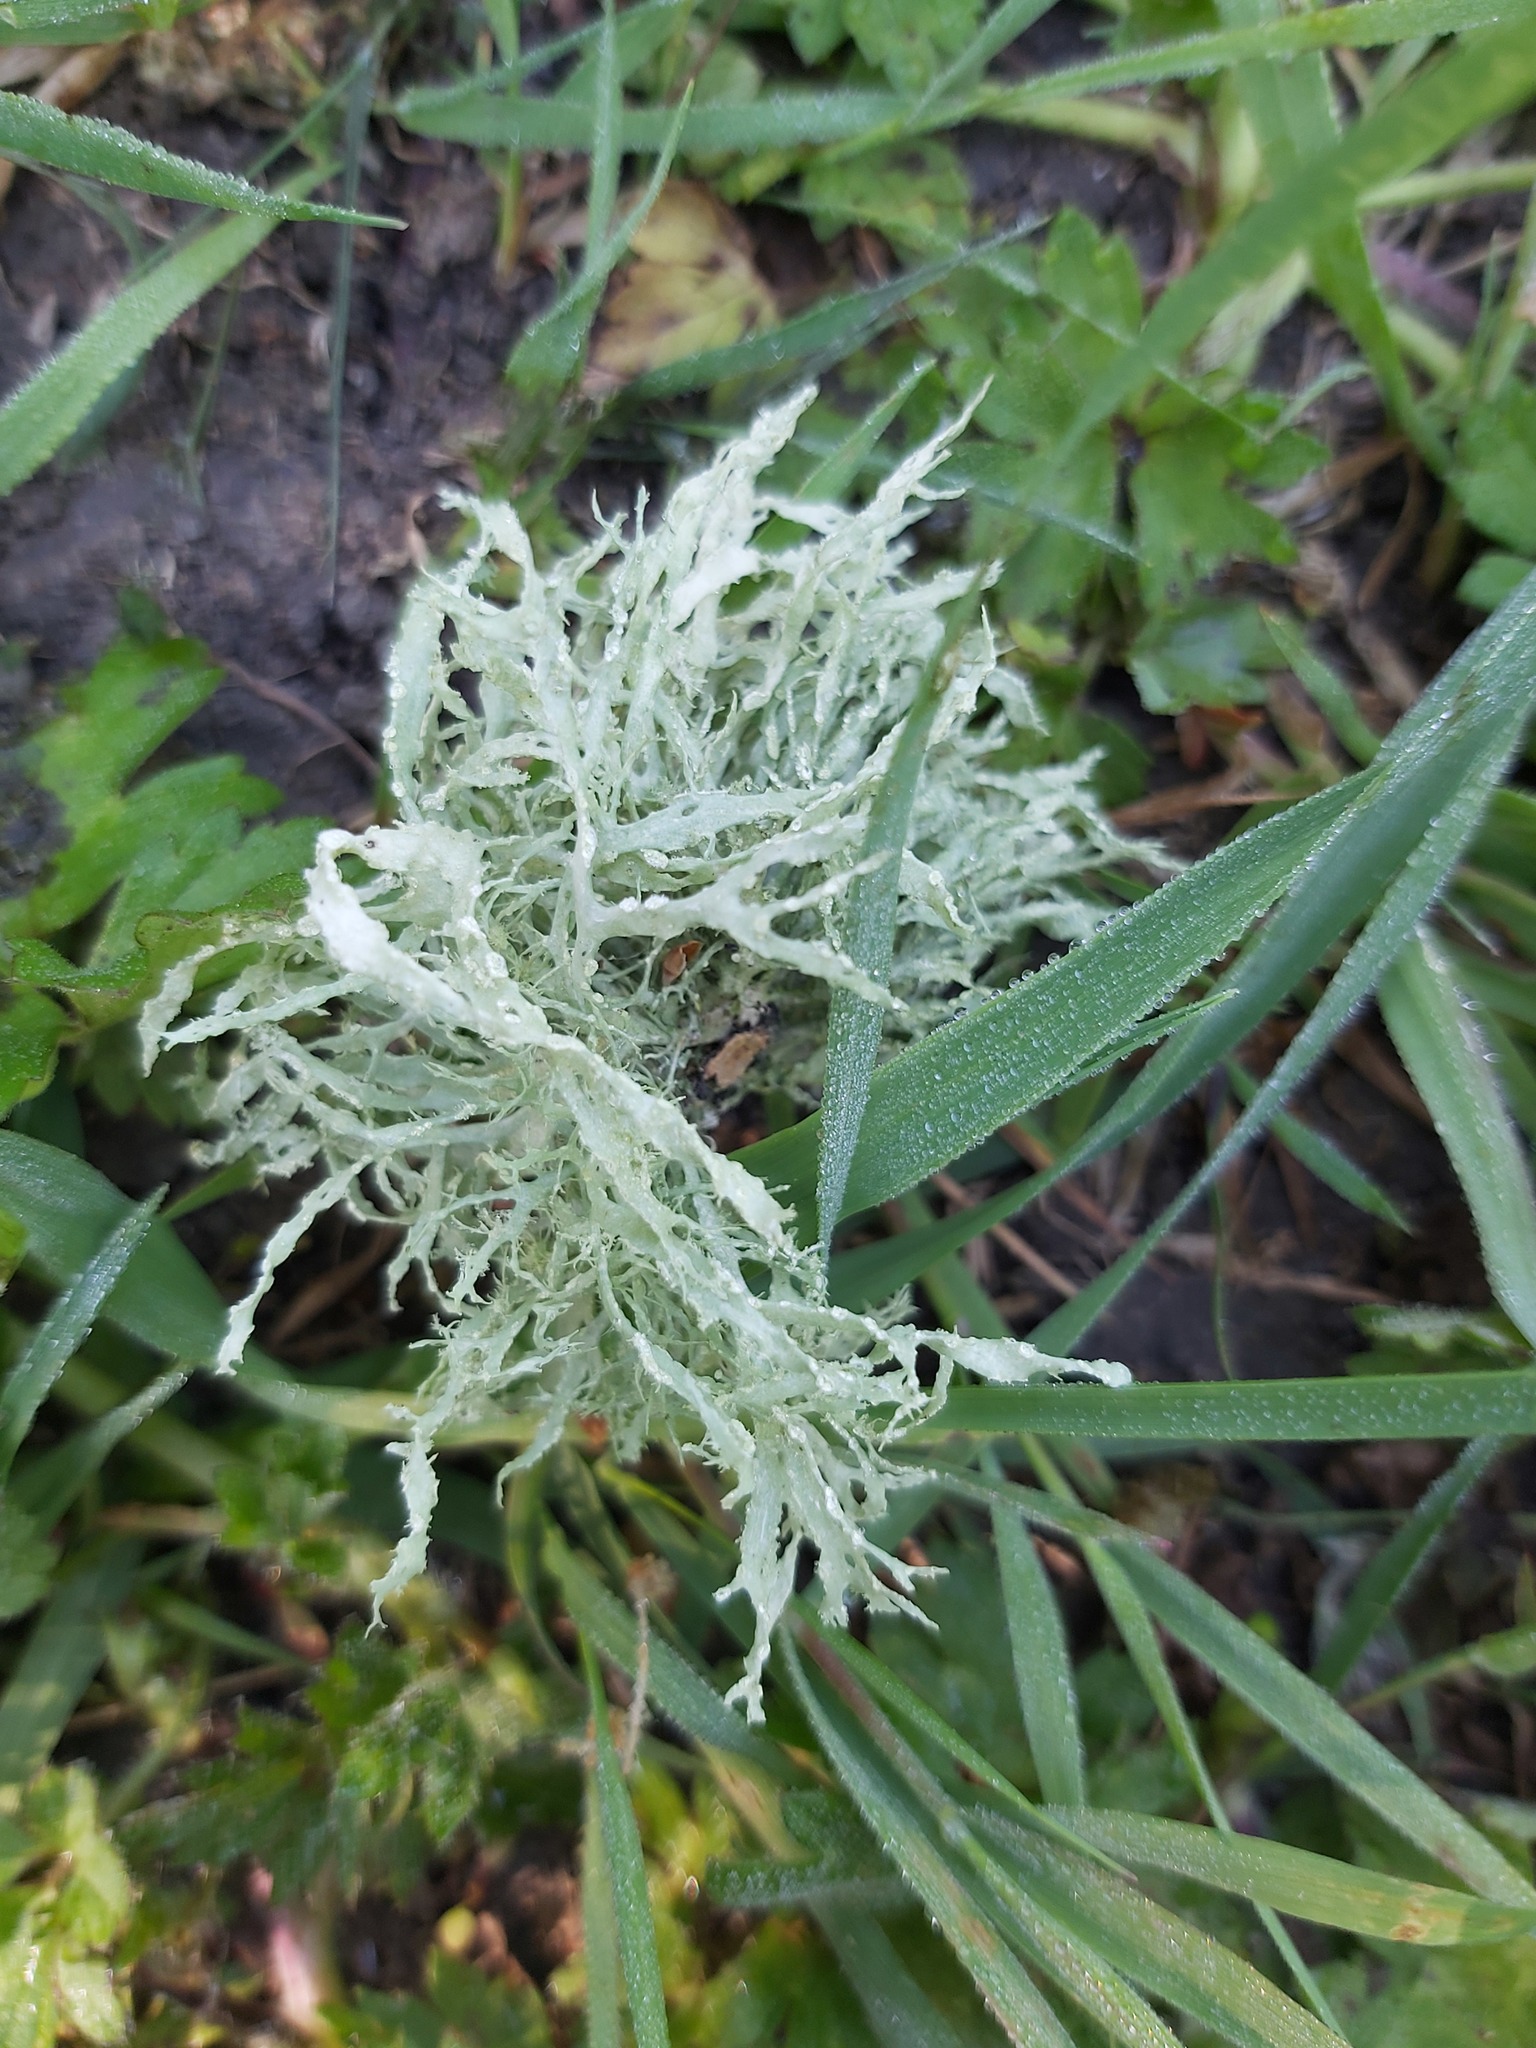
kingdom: Fungi
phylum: Ascomycota
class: Lecanoromycetes
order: Lecanorales
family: Ramalinaceae
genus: Ramalina
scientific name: Ramalina farinacea
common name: Farinose cartilage lichen
